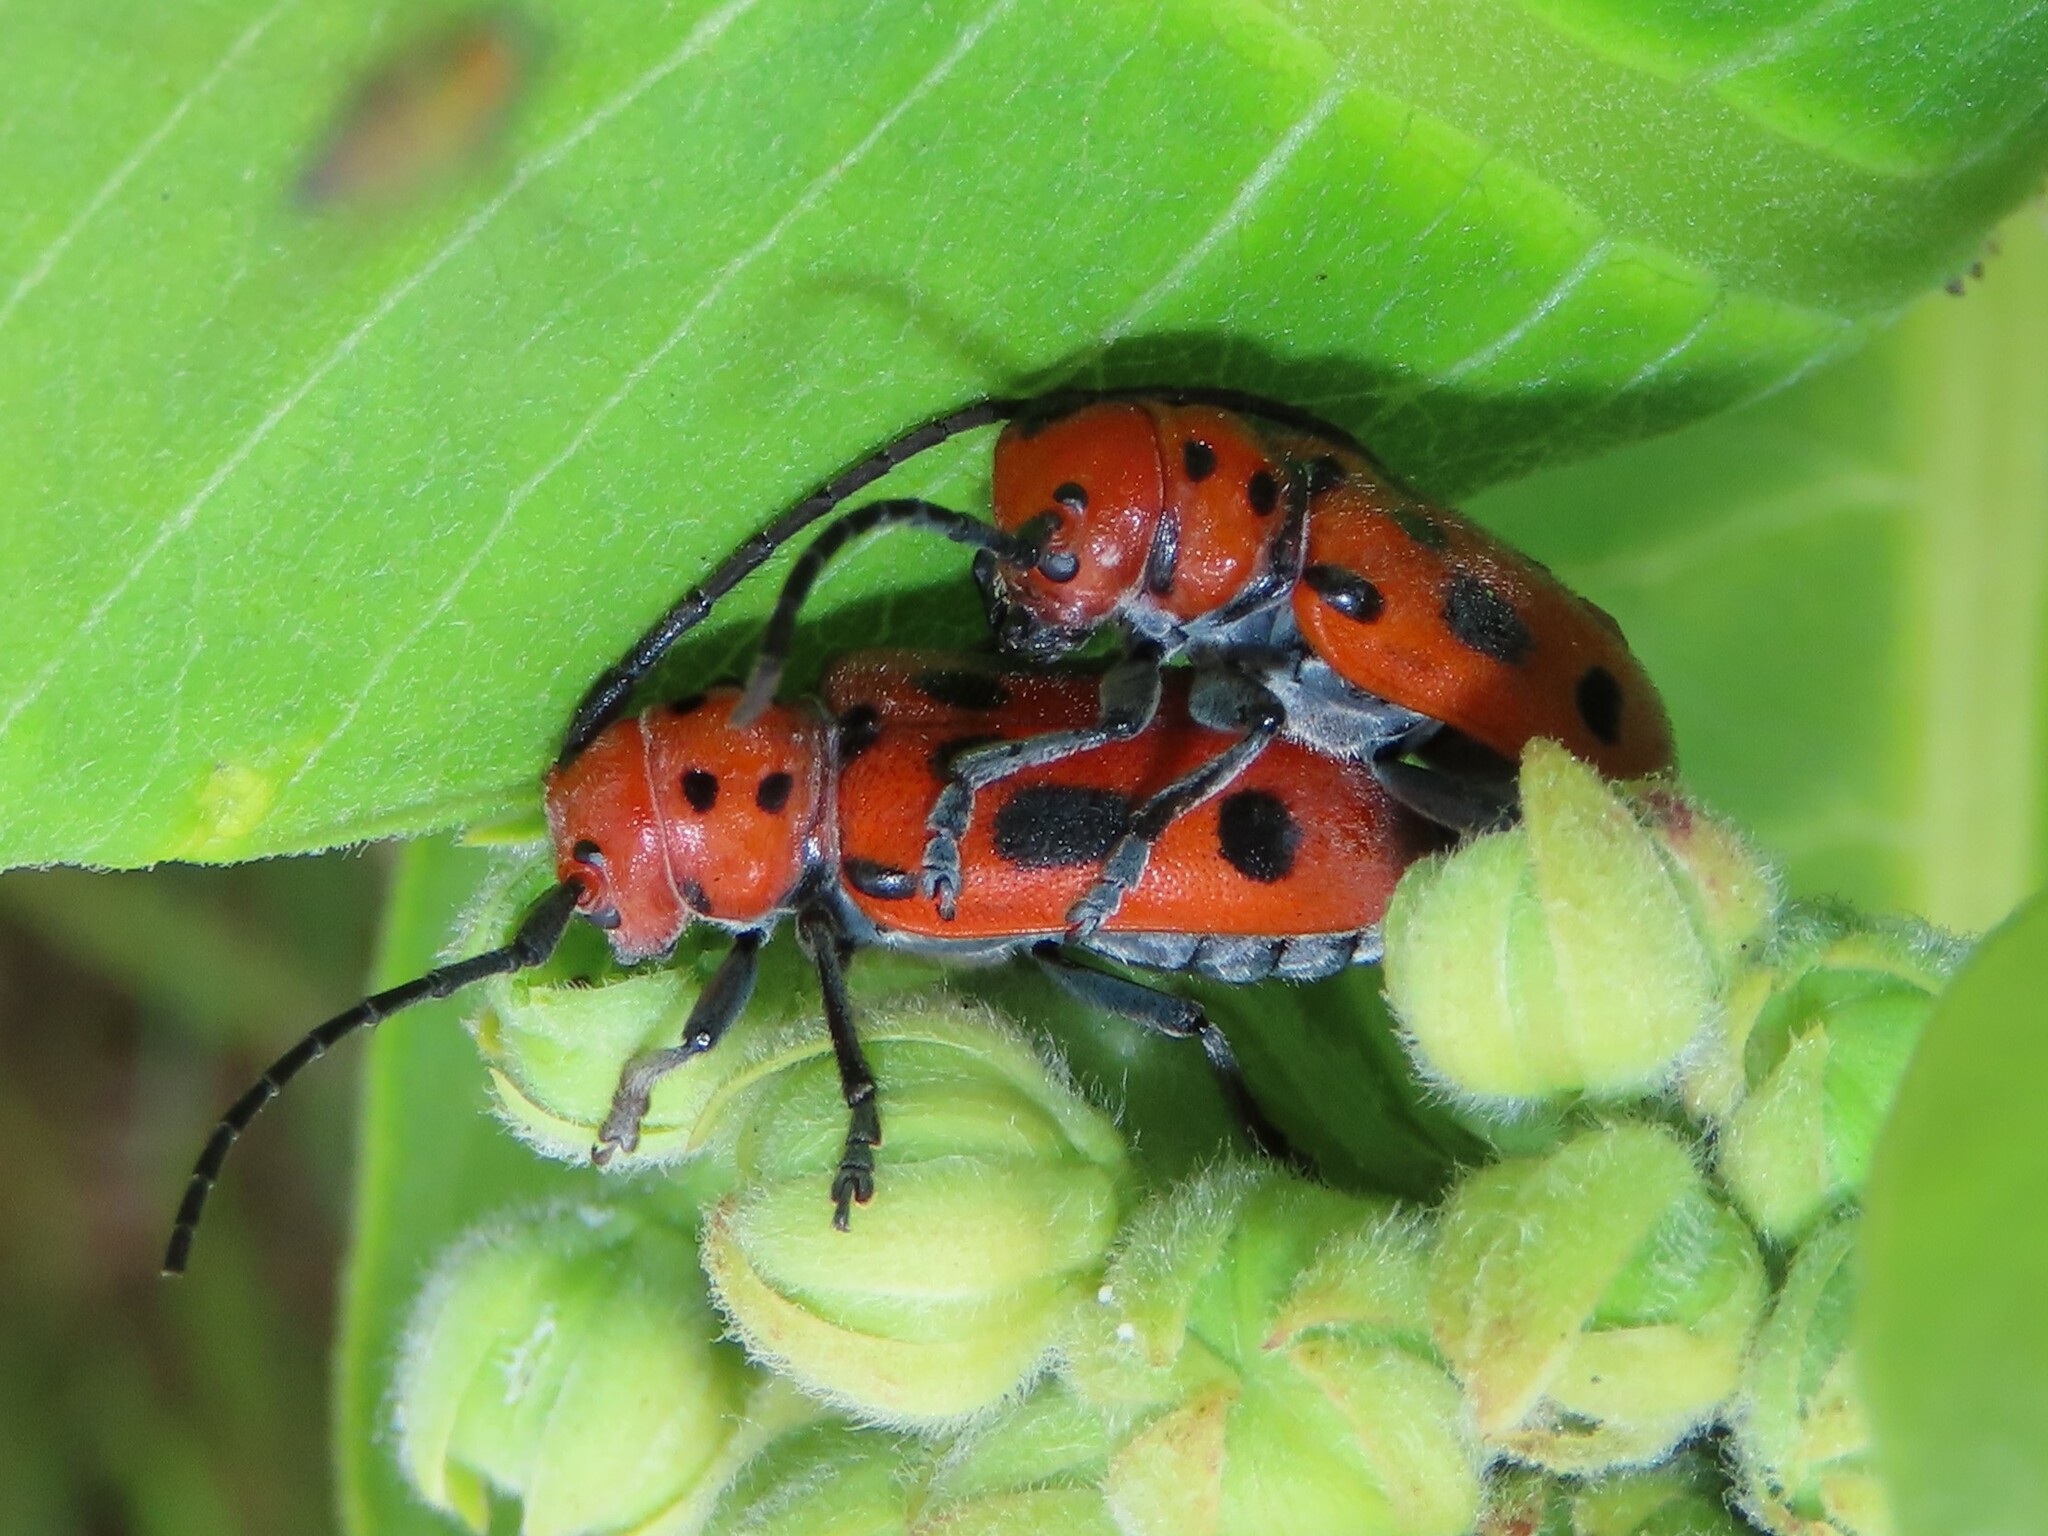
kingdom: Animalia
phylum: Arthropoda
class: Insecta
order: Coleoptera
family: Cerambycidae
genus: Tetraopes
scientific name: Tetraopes tetrophthalmus
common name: Red milkweed beetle
